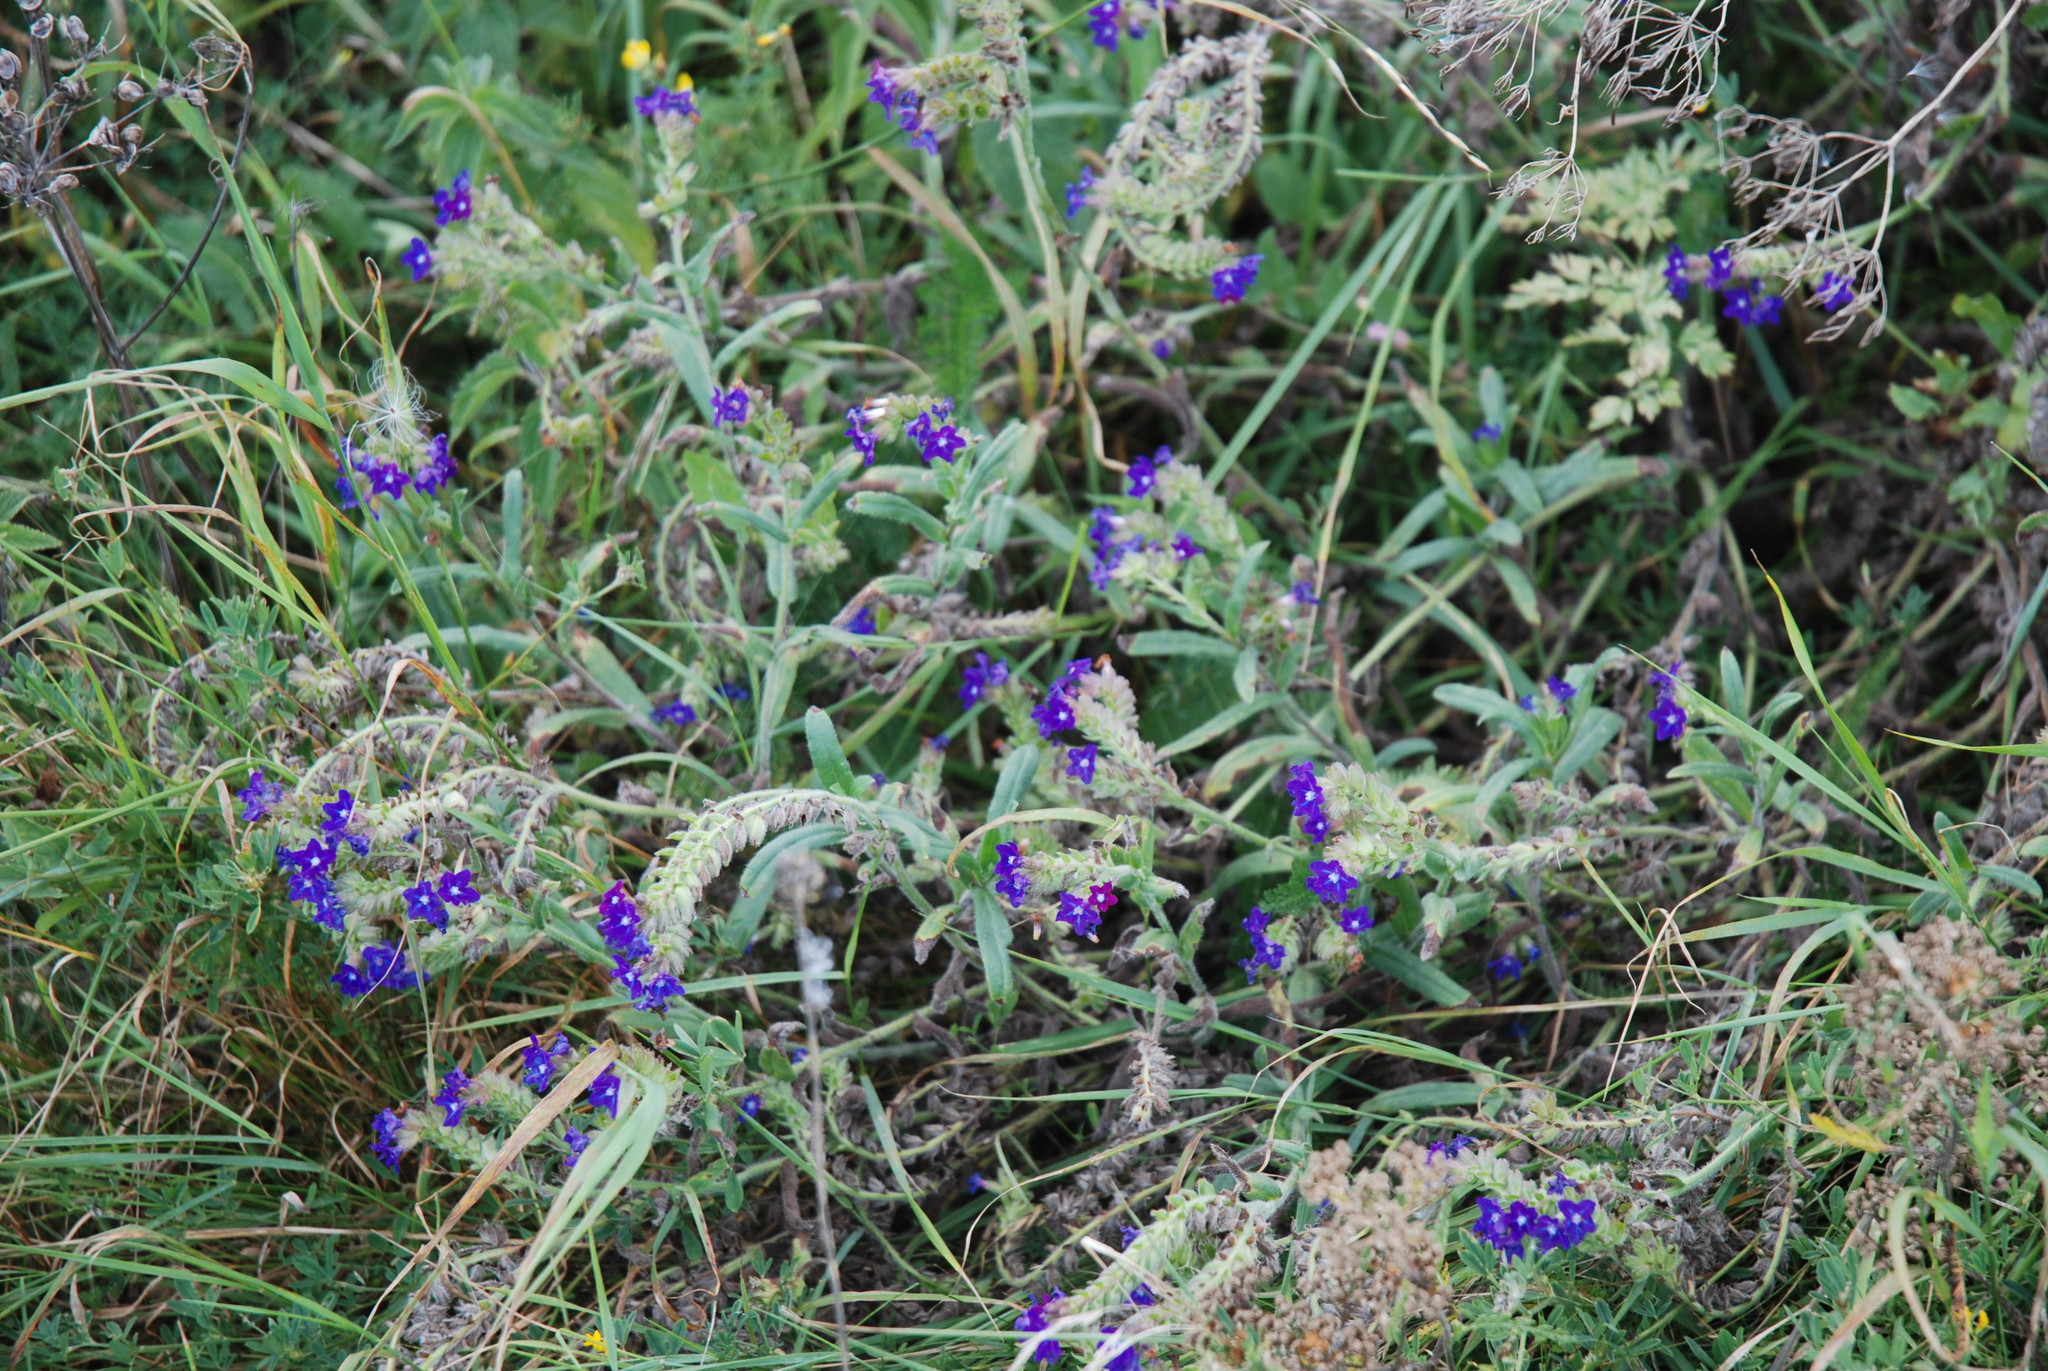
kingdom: Plantae
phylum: Tracheophyta
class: Magnoliopsida
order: Boraginales
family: Boraginaceae
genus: Anchusa
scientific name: Anchusa officinalis
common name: Alkanet
